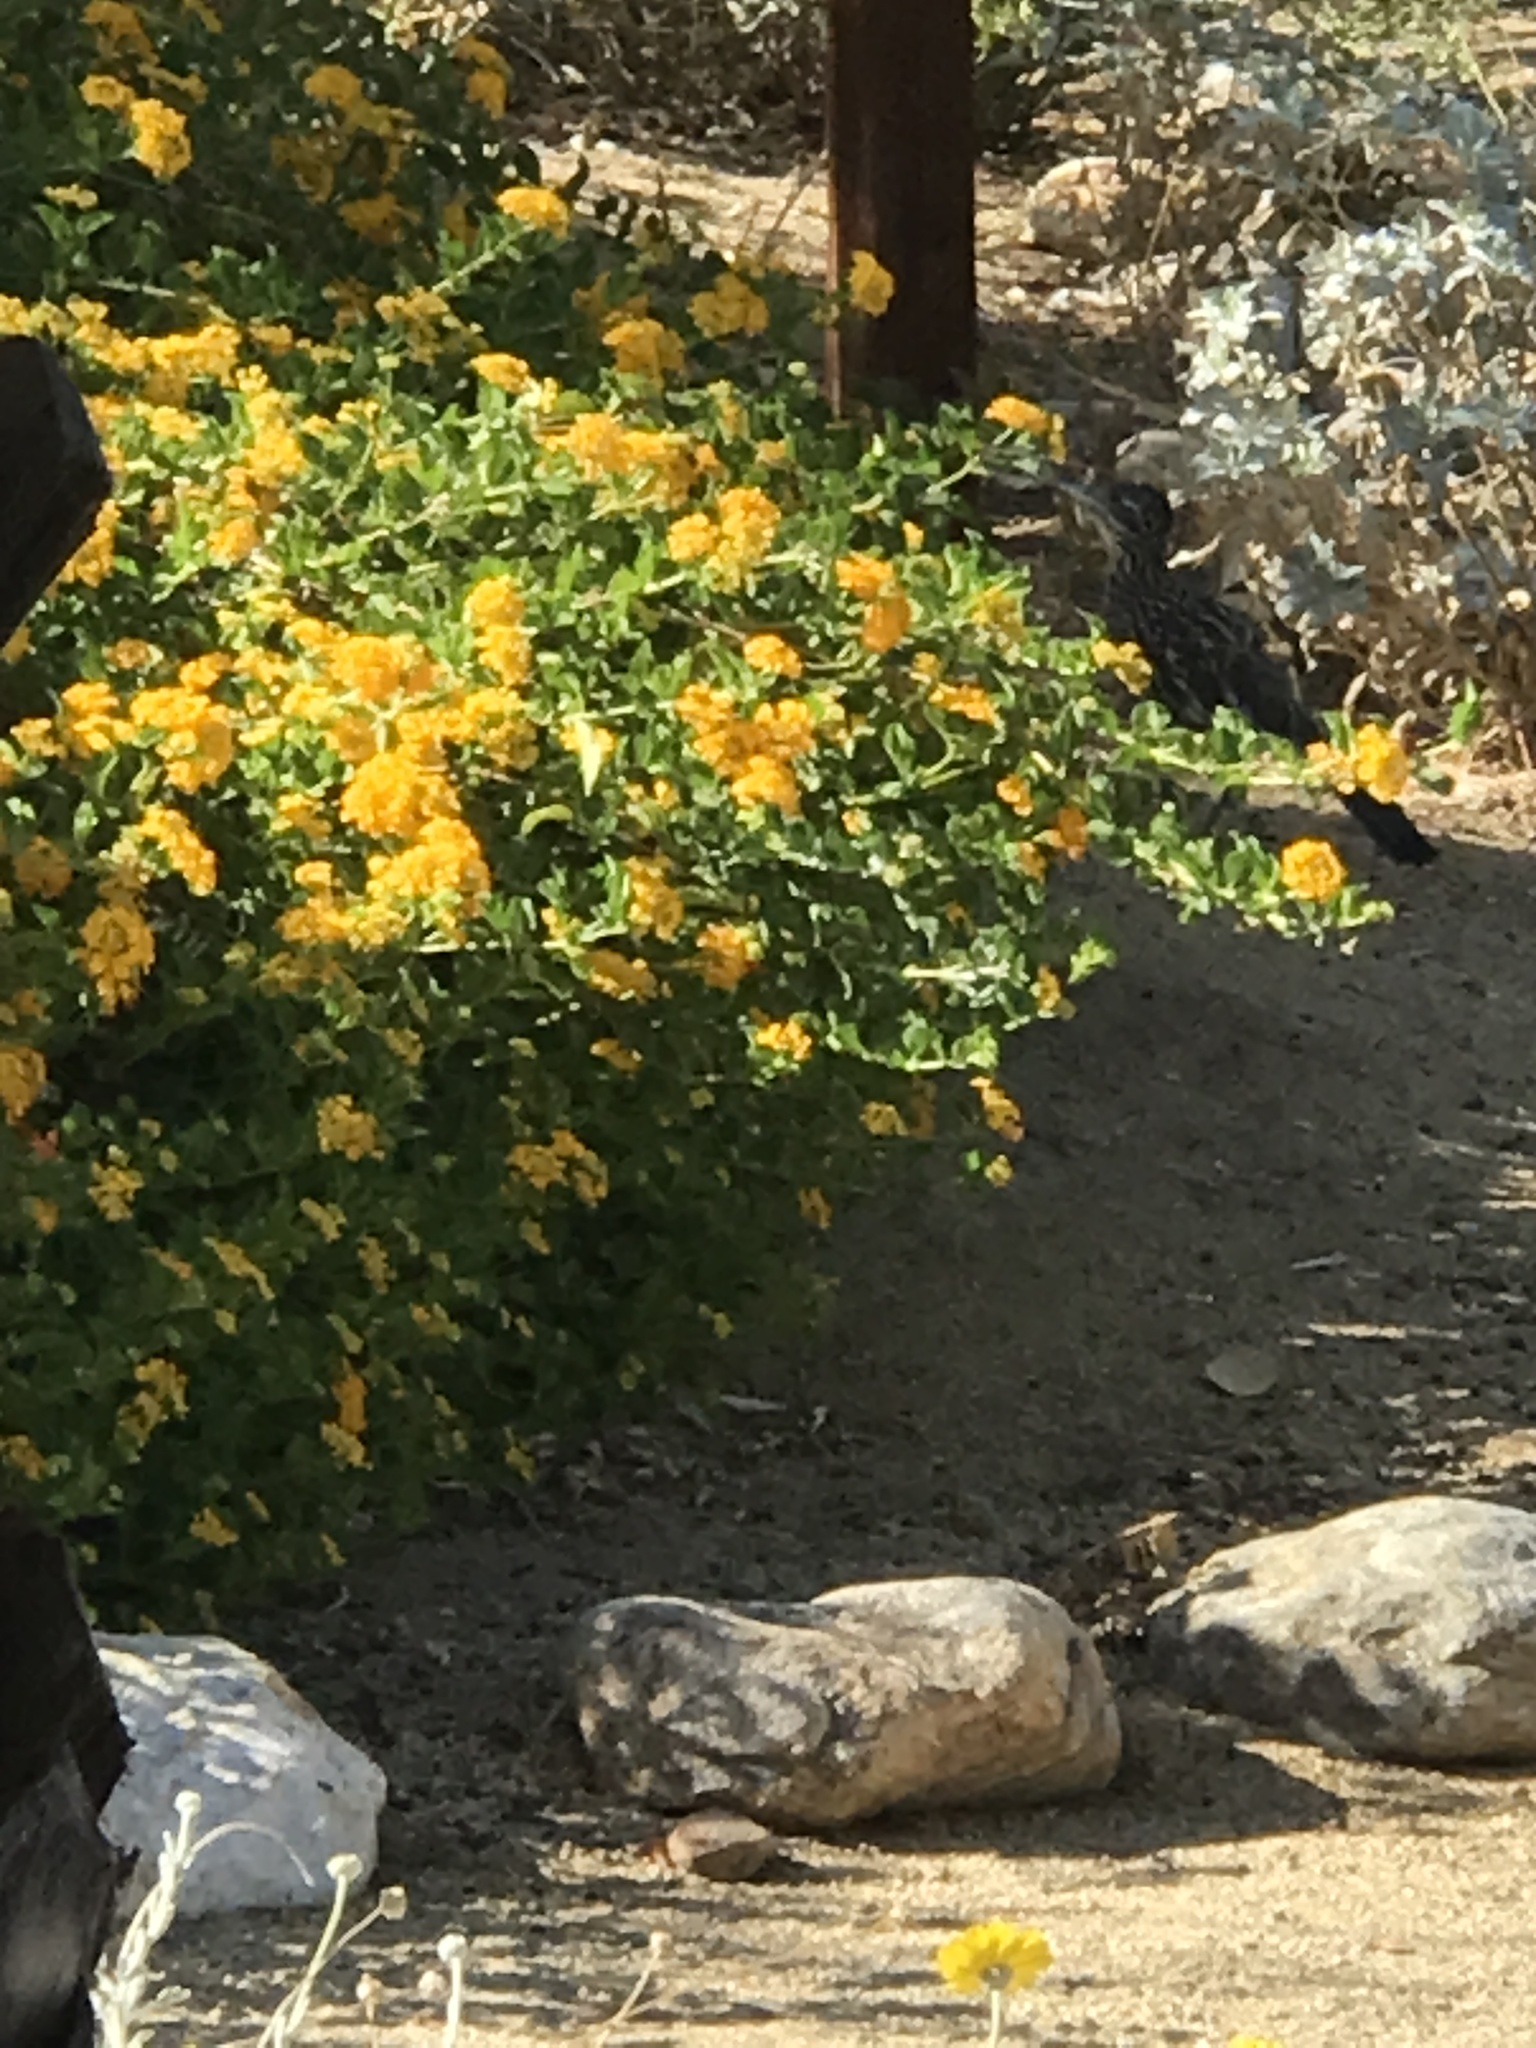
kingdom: Animalia
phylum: Chordata
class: Aves
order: Cuculiformes
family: Cuculidae
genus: Geococcyx
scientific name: Geococcyx californianus
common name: Greater roadrunner
